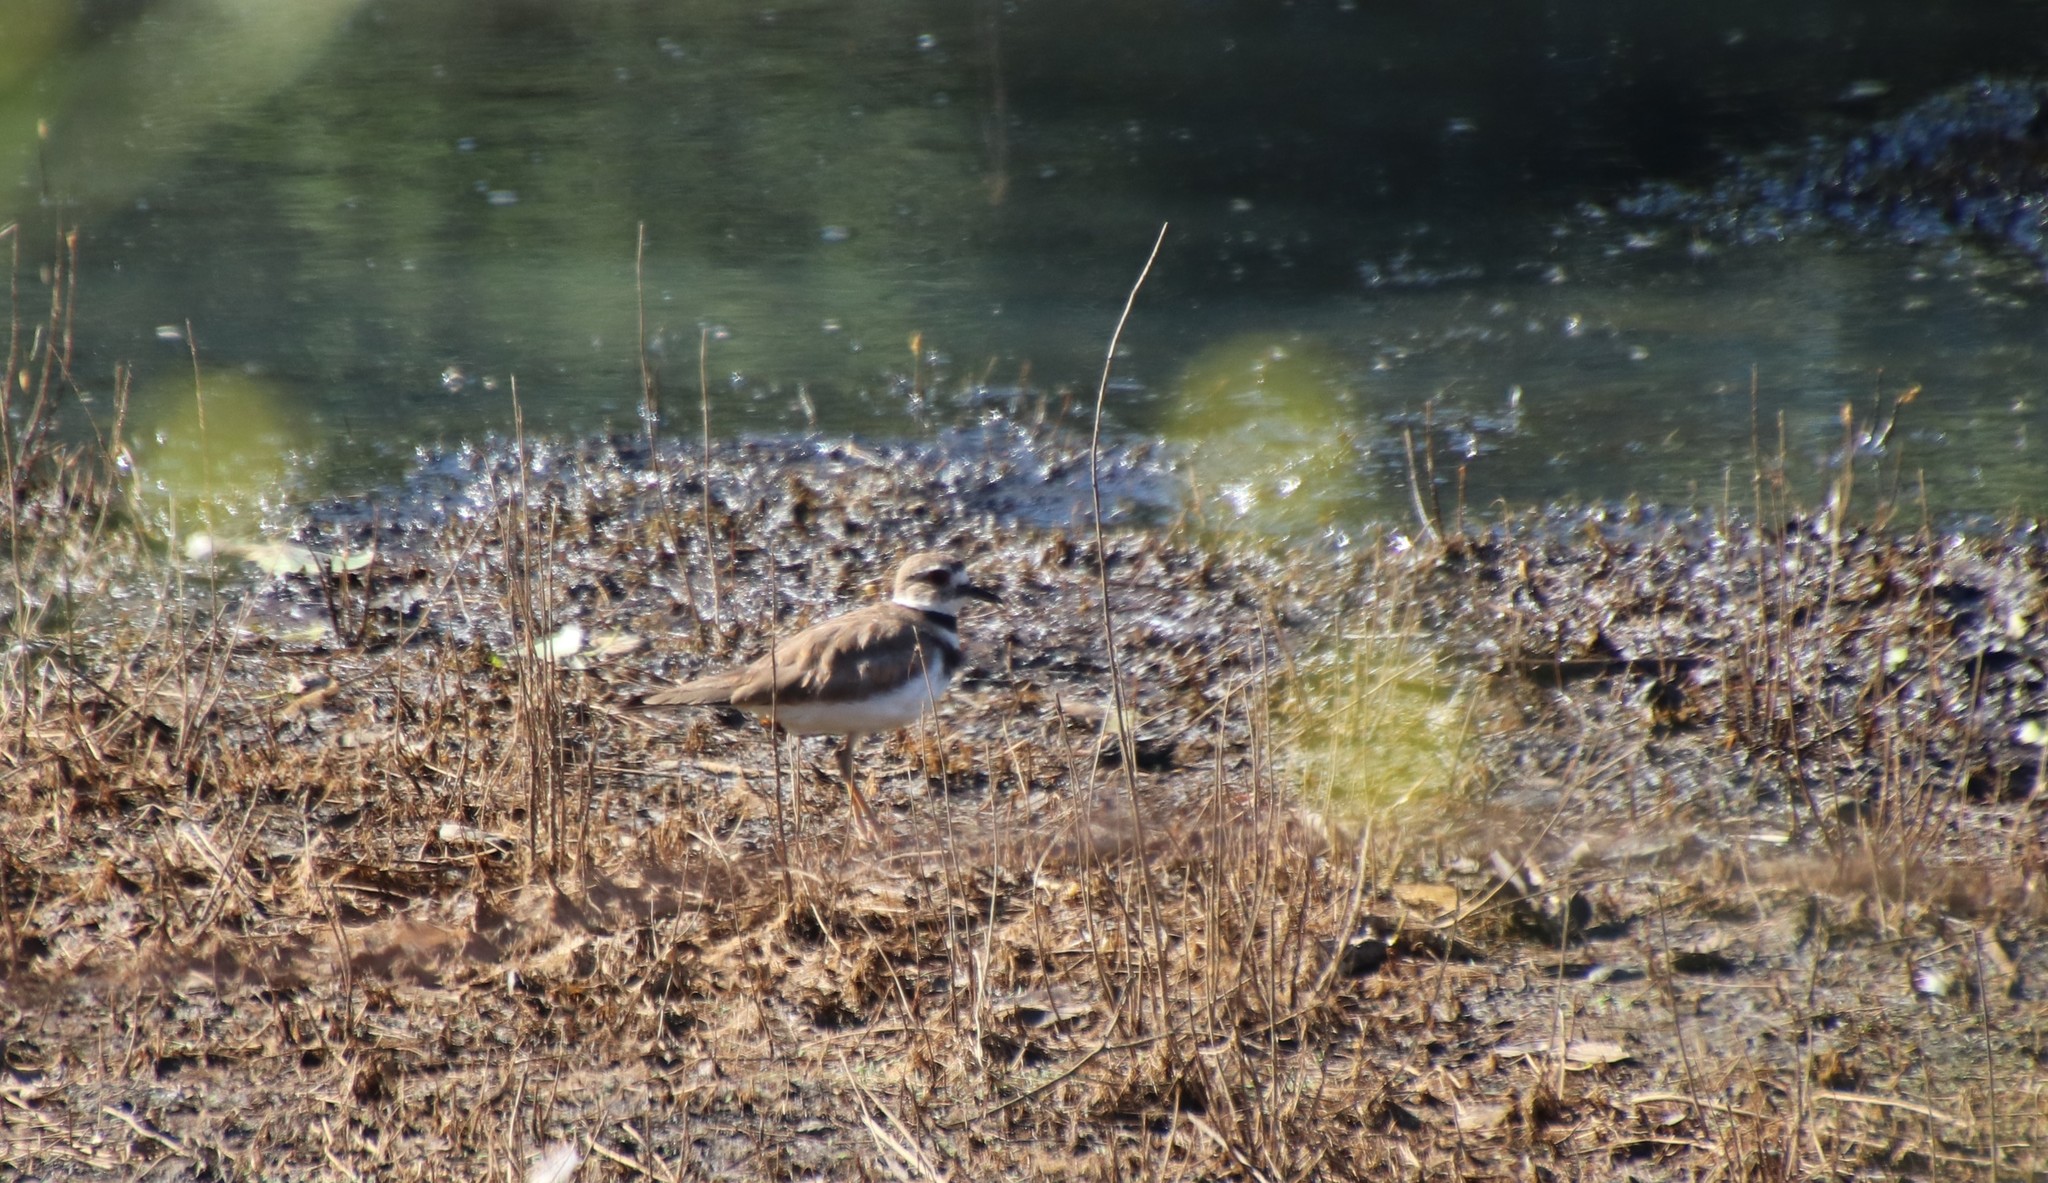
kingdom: Animalia
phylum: Chordata
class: Aves
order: Charadriiformes
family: Charadriidae
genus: Charadrius
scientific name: Charadrius vociferus
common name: Killdeer
